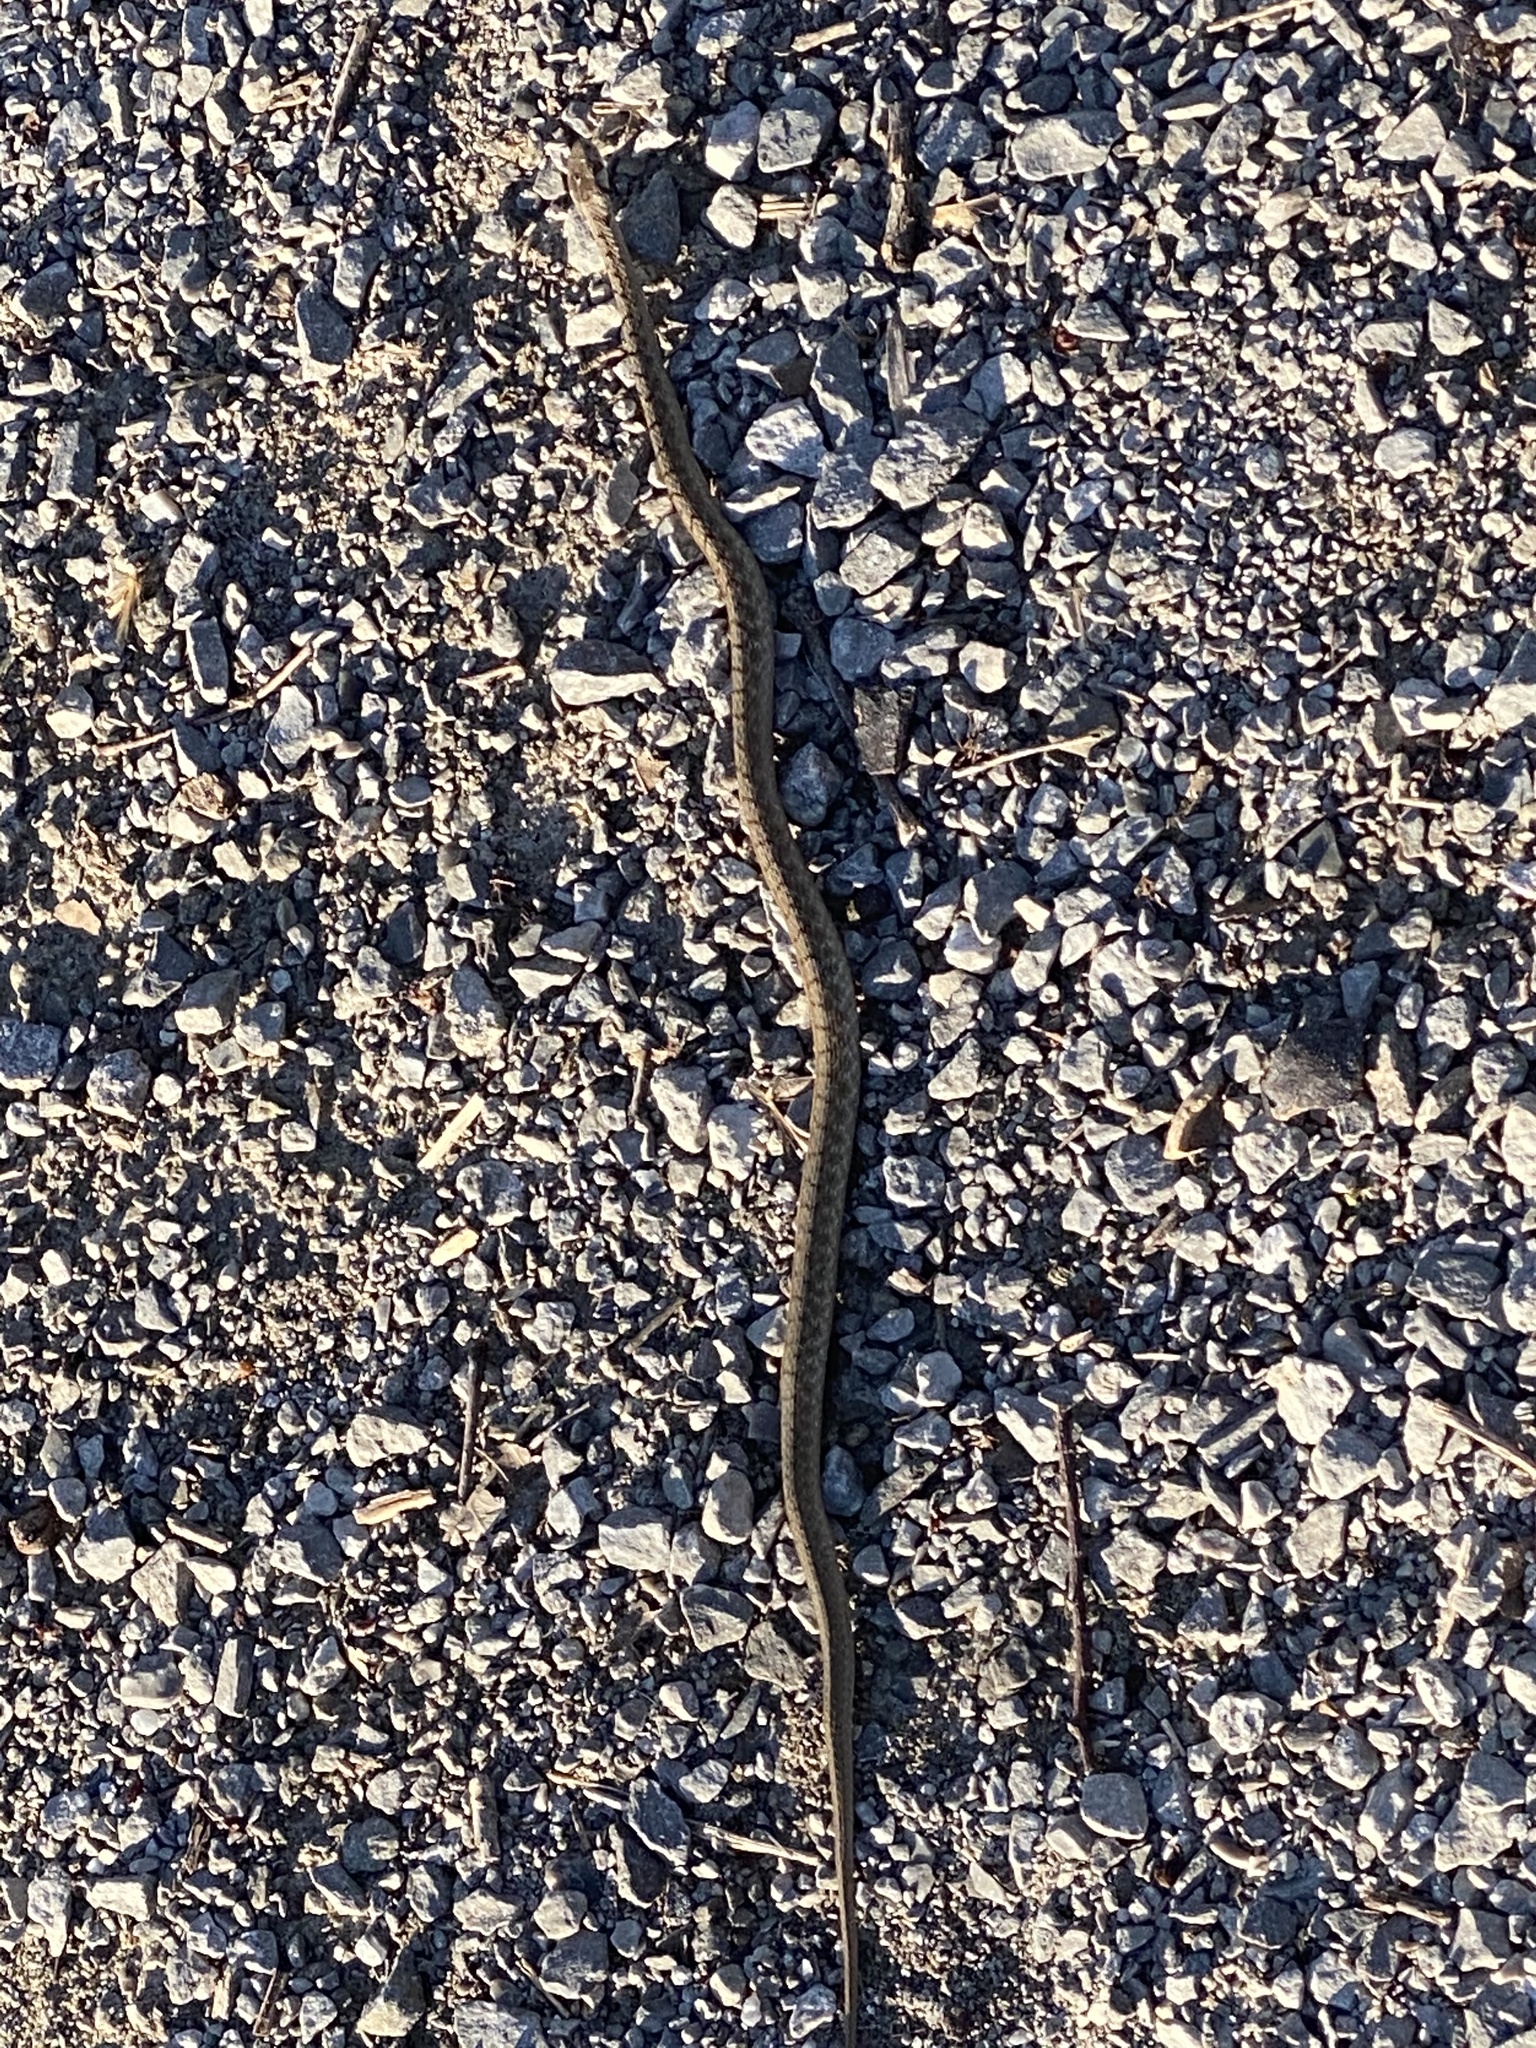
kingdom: Animalia
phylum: Chordata
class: Squamata
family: Colubridae
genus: Storeria
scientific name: Storeria dekayi
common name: (dekay’s) brown snake
